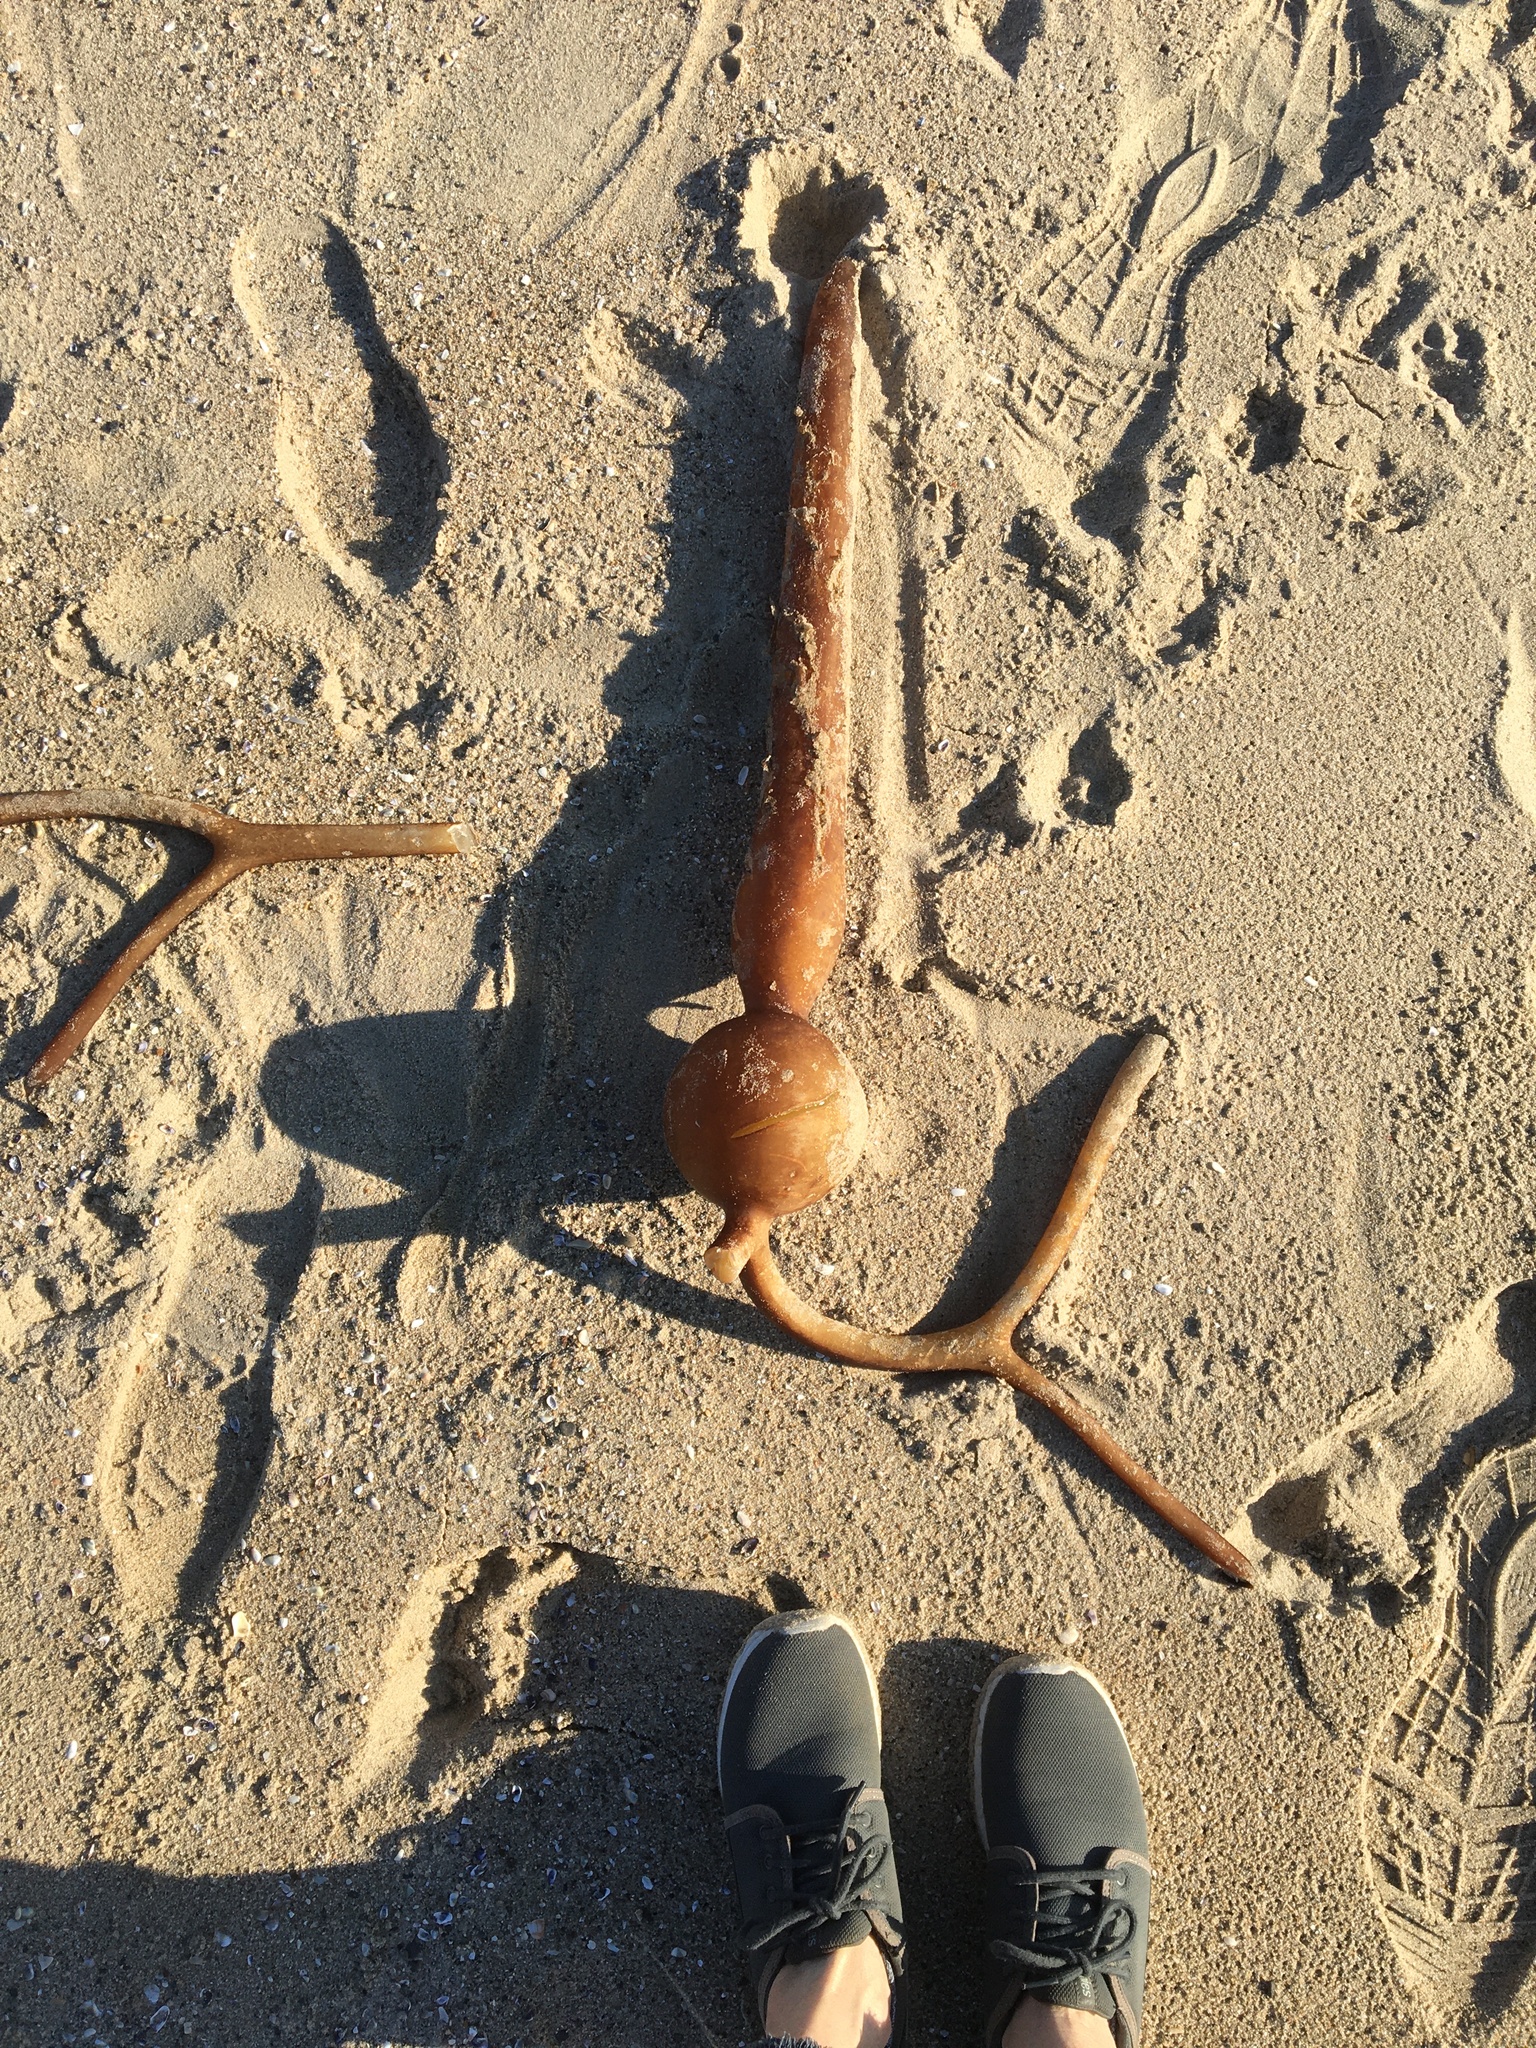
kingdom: Chromista
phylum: Ochrophyta
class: Phaeophyceae
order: Laminariales
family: Laminariaceae
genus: Pelagophycus
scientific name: Pelagophycus porra
